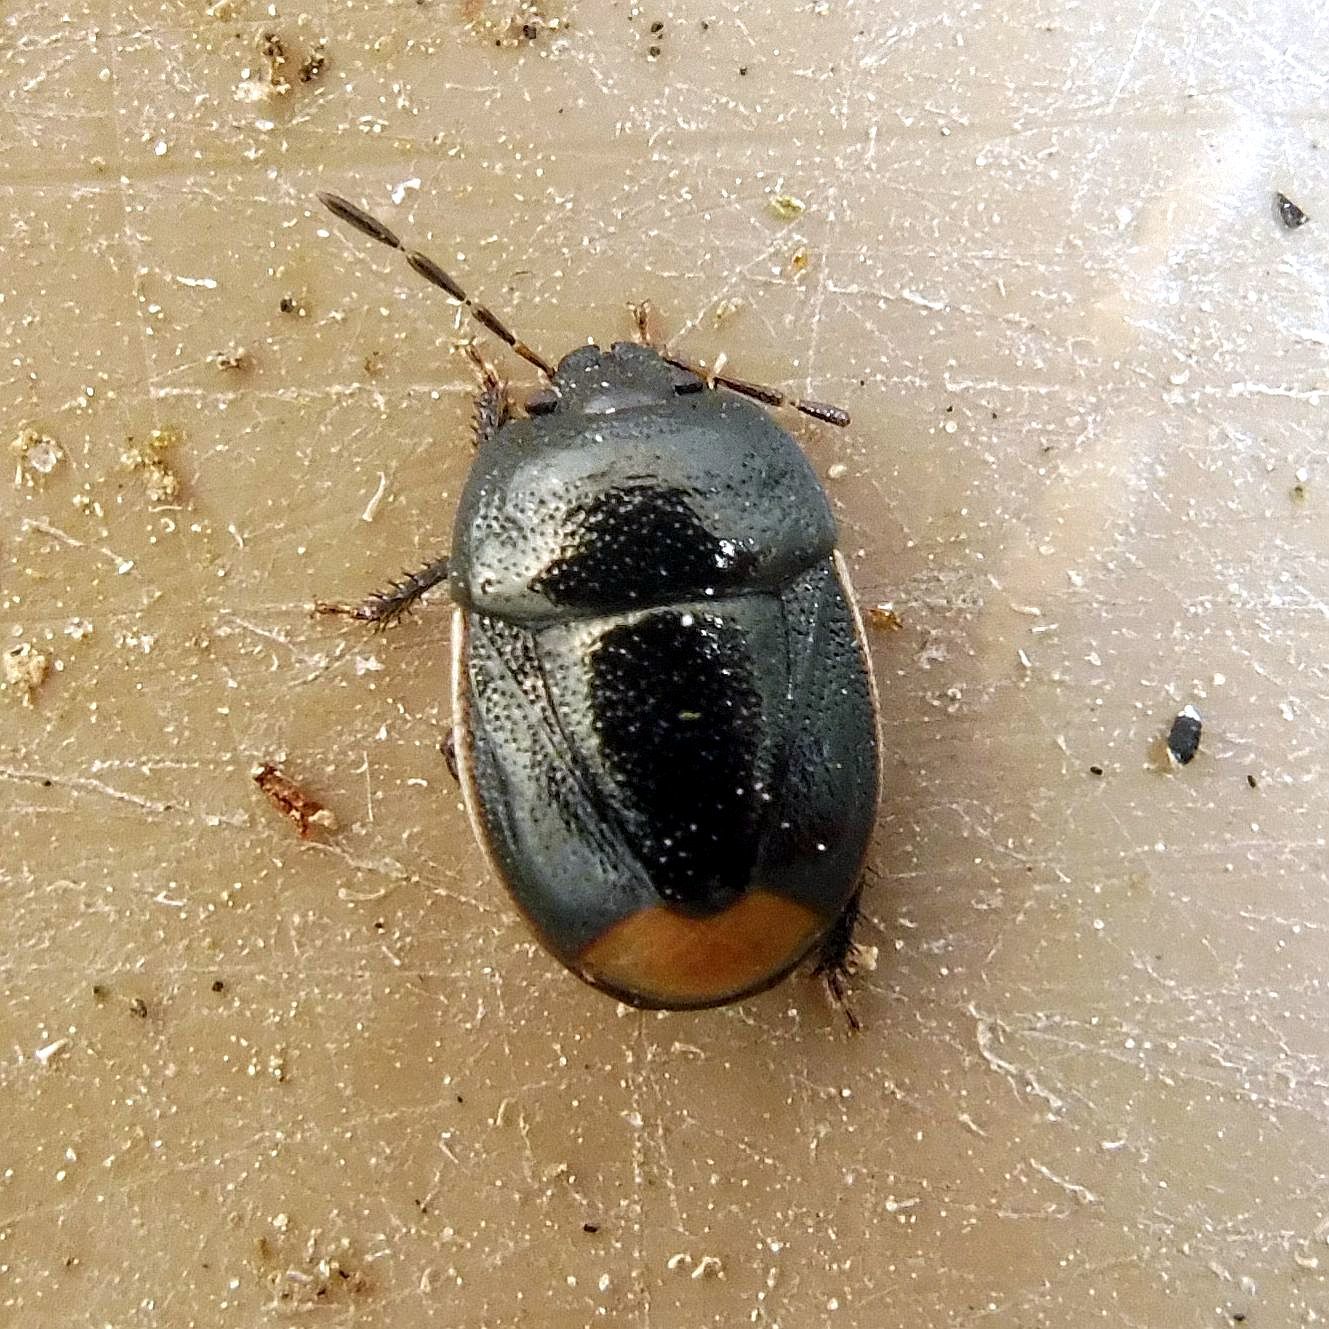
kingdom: Animalia
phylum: Arthropoda
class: Insecta
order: Hemiptera
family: Cydnidae
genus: Legnotus
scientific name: Legnotus limbosus
